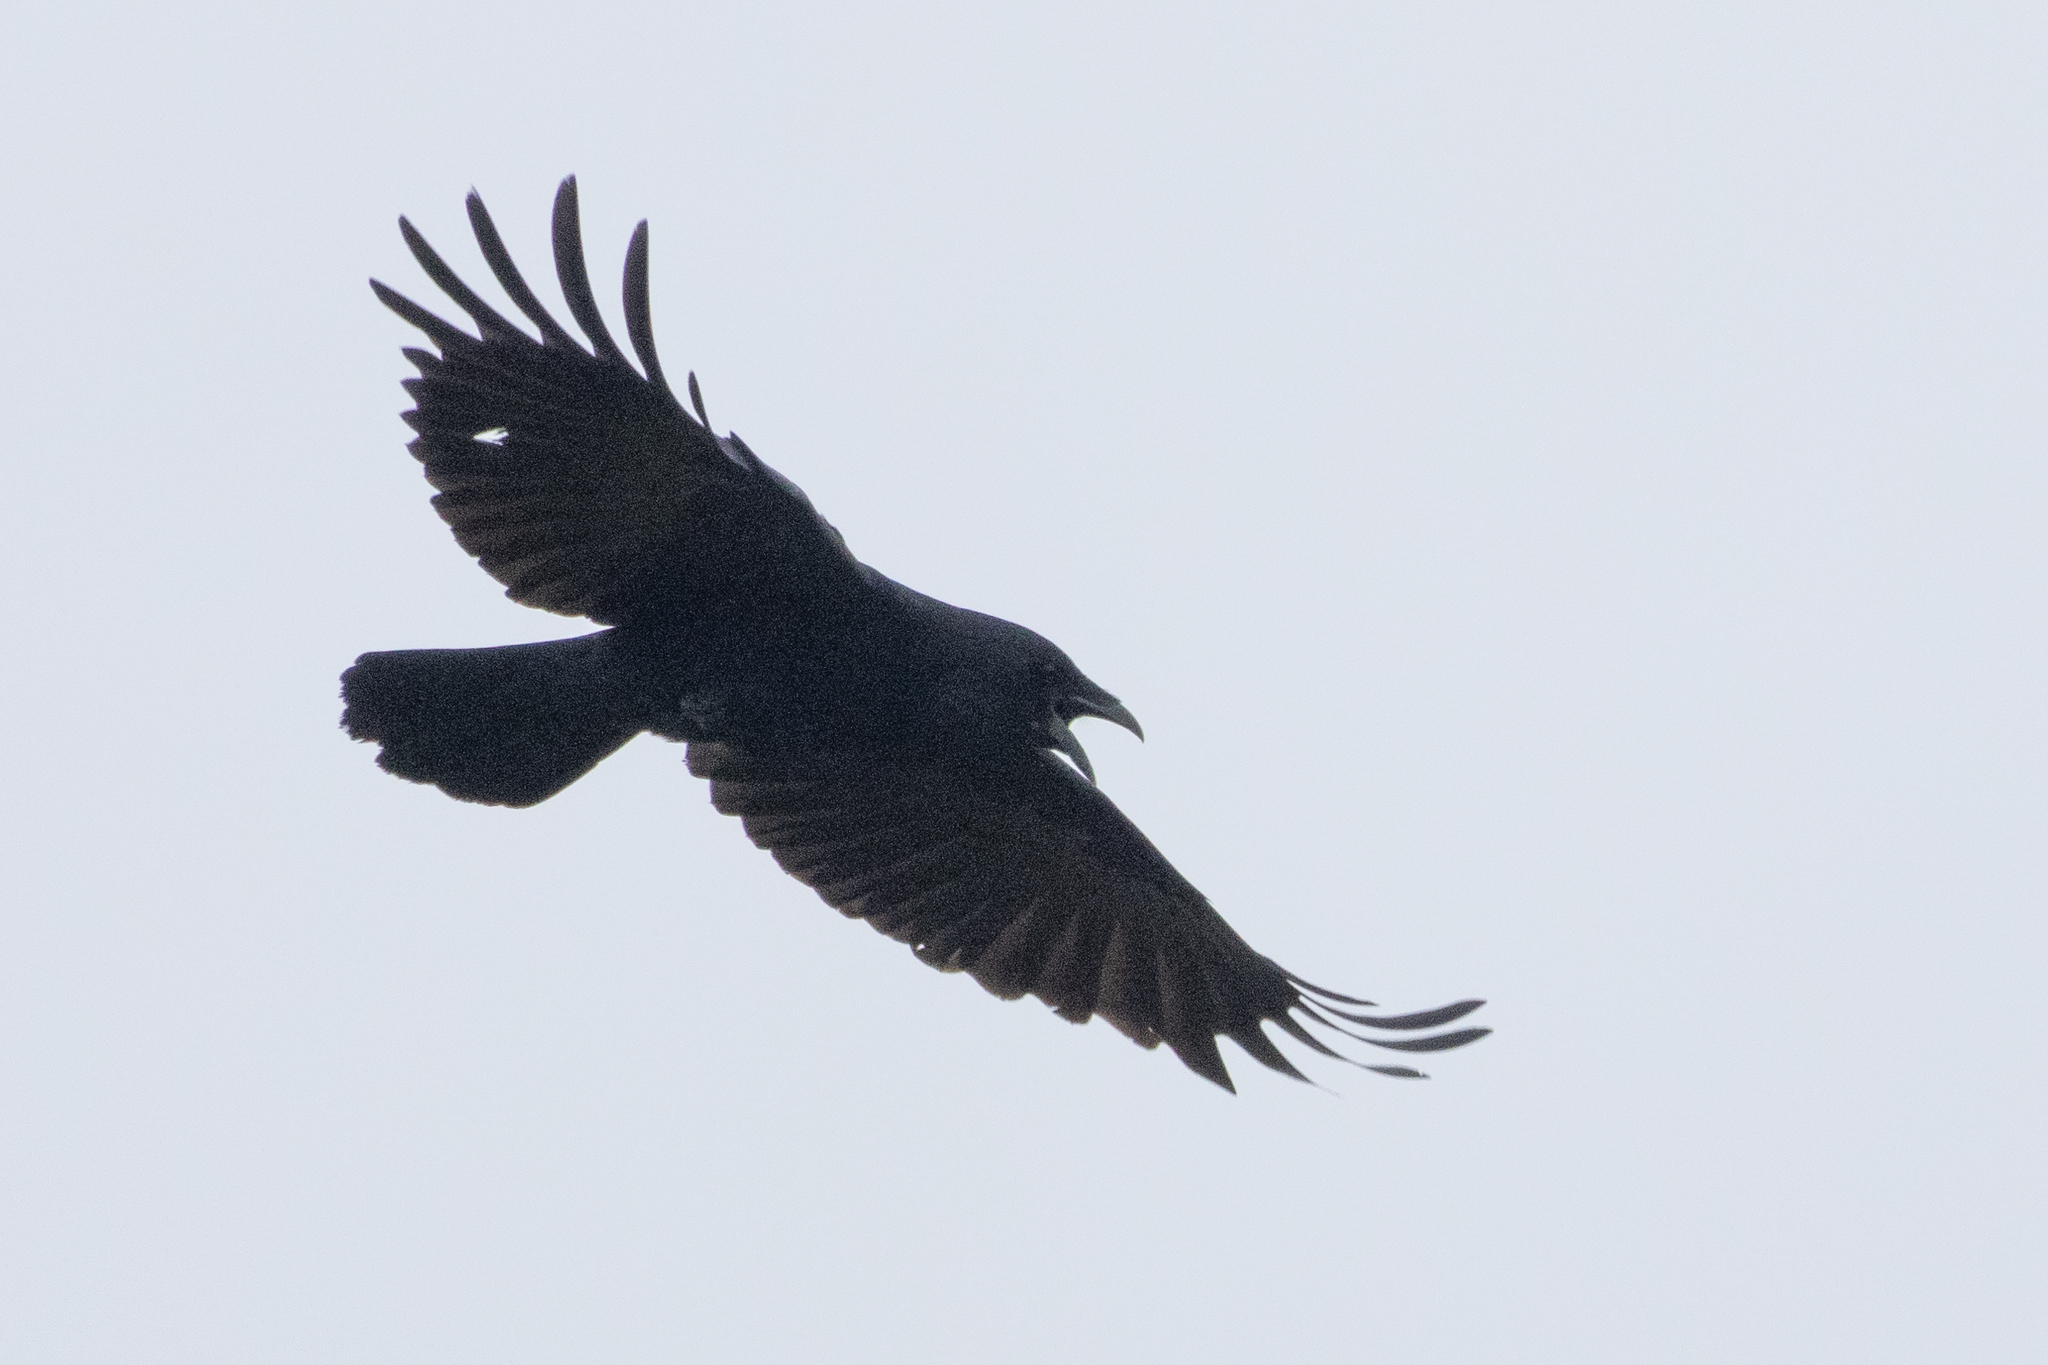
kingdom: Animalia
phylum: Chordata
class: Aves
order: Passeriformes
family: Corvidae
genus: Corvus
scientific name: Corvus corone
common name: Carrion crow
